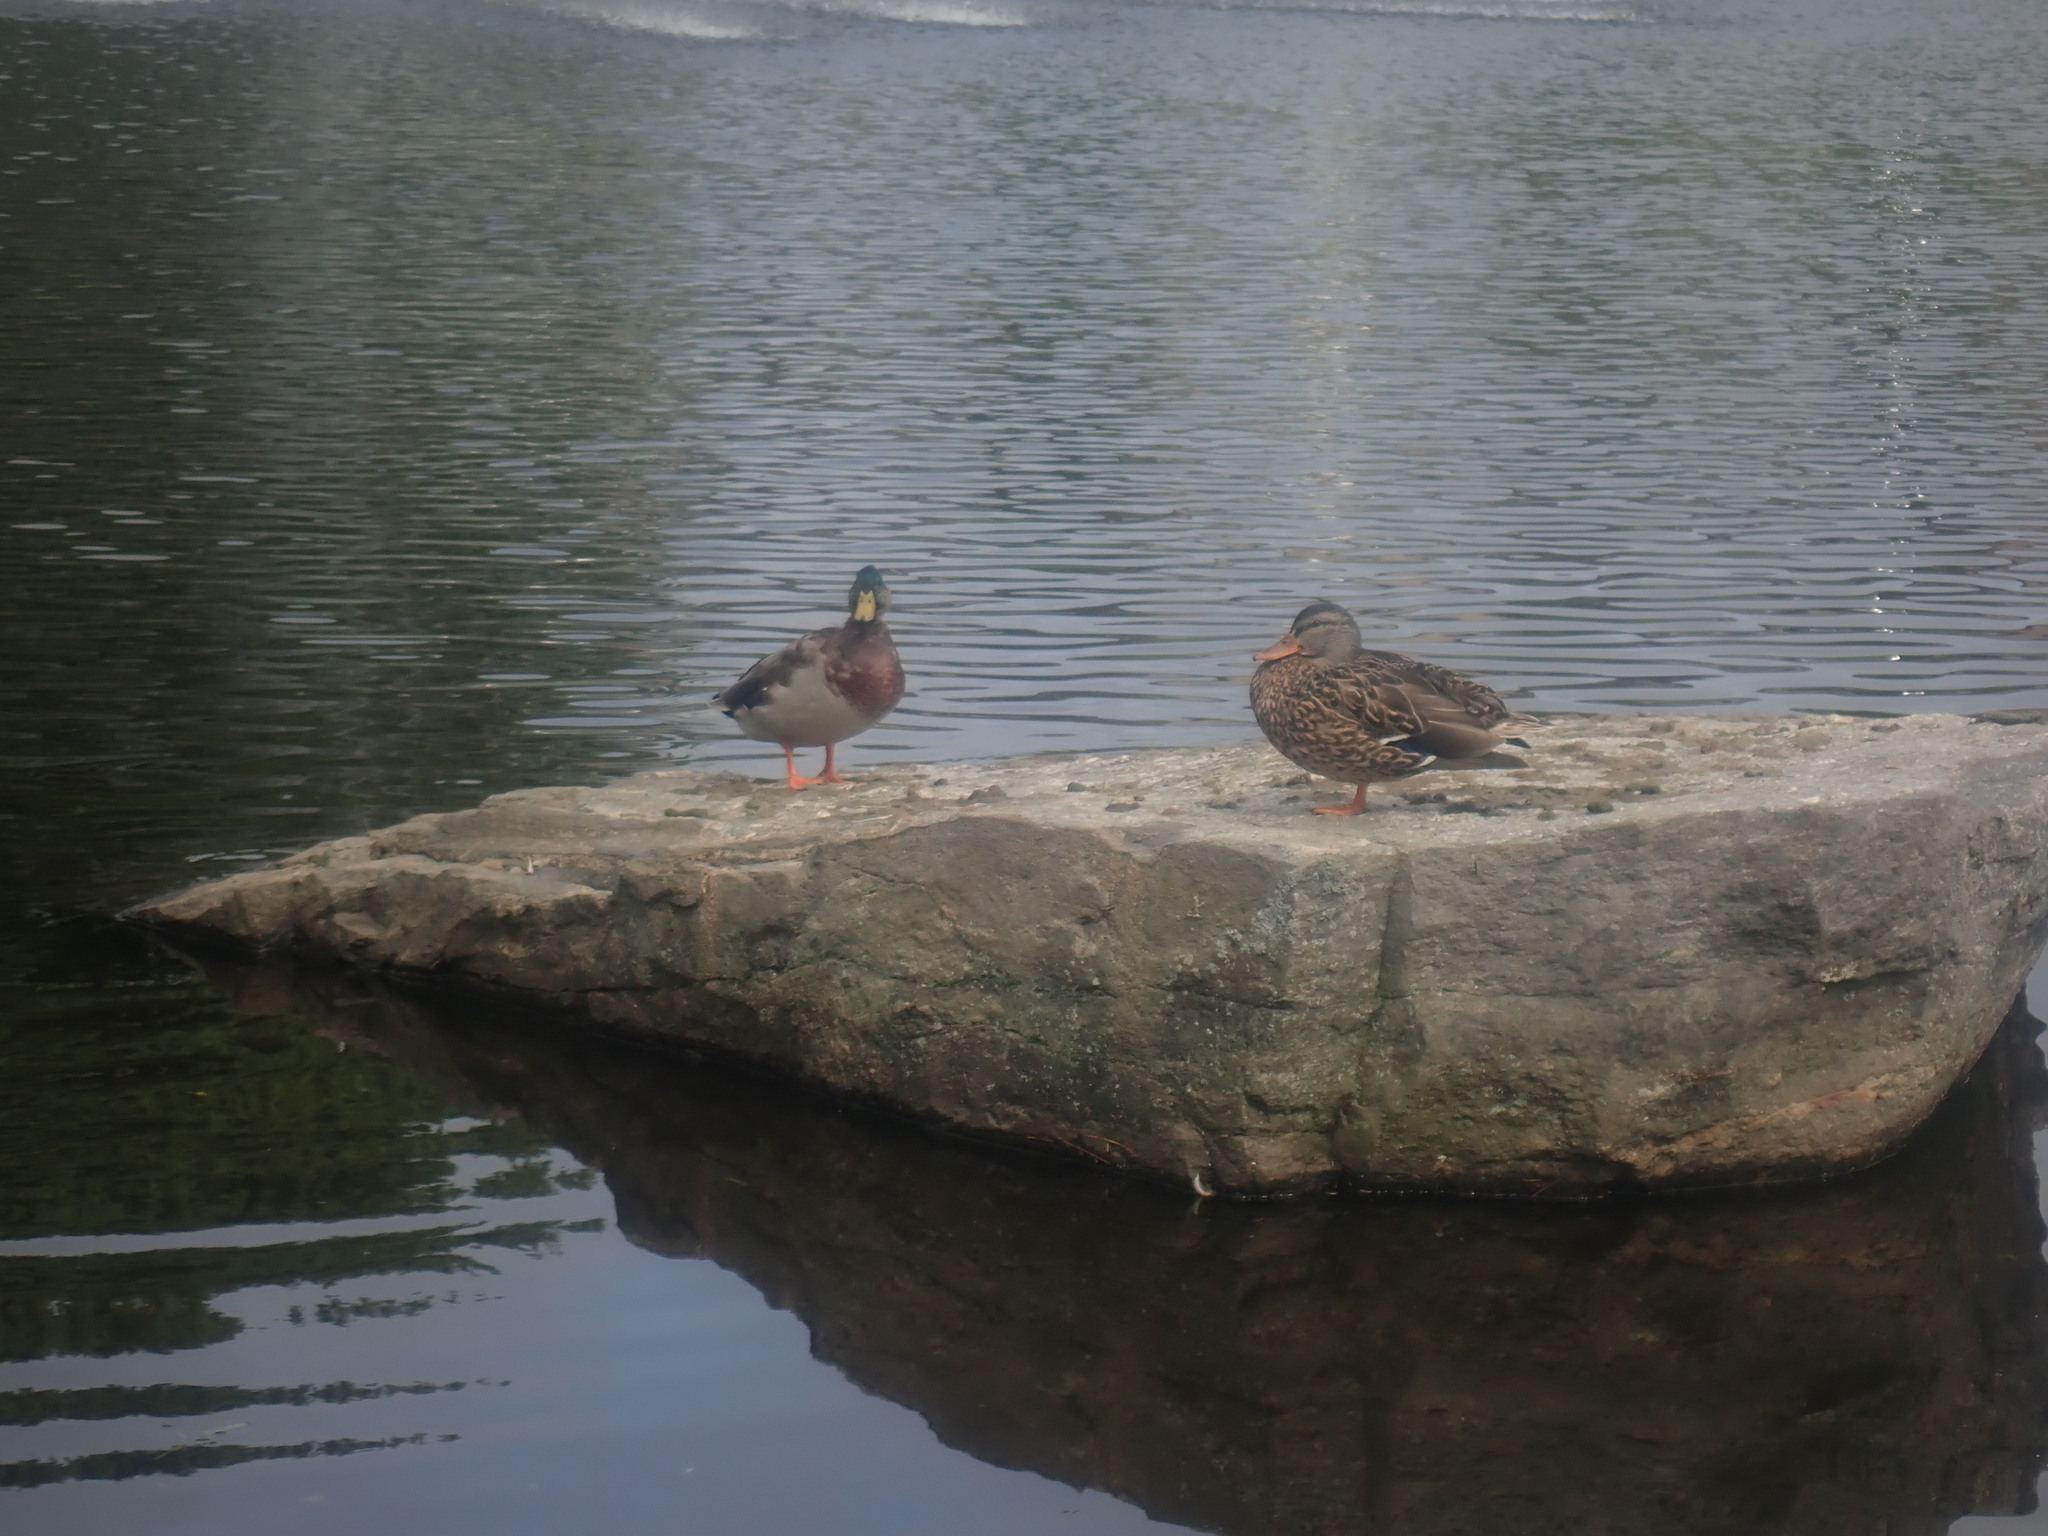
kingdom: Animalia
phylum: Chordata
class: Aves
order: Anseriformes
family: Anatidae
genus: Anas
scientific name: Anas platyrhynchos
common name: Mallard
